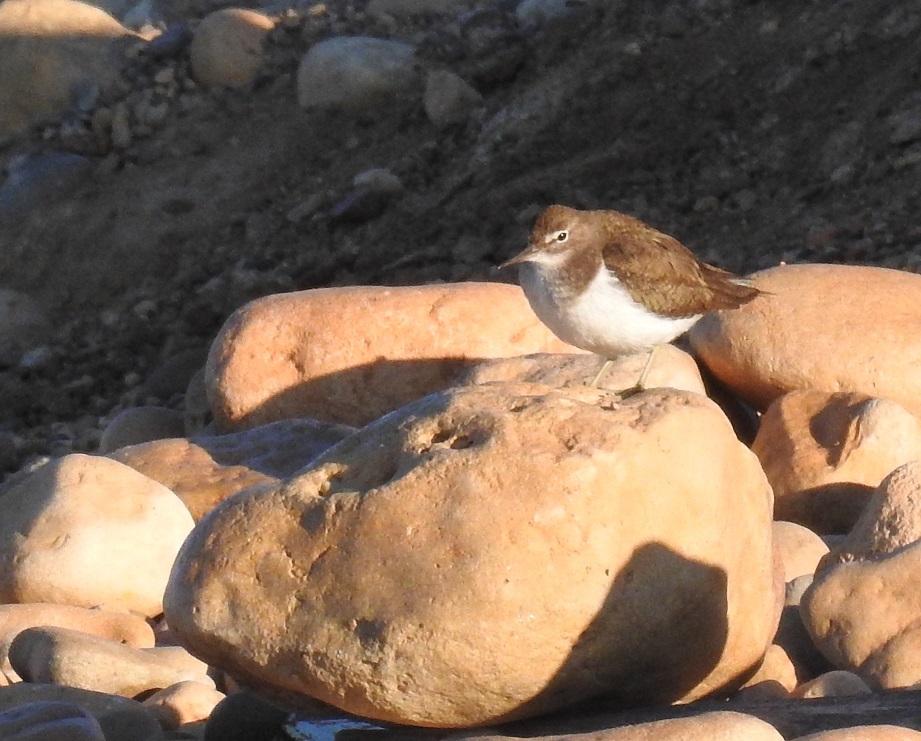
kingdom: Animalia
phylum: Chordata
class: Aves
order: Charadriiformes
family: Scolopacidae
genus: Actitis
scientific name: Actitis hypoleucos
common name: Common sandpiper
